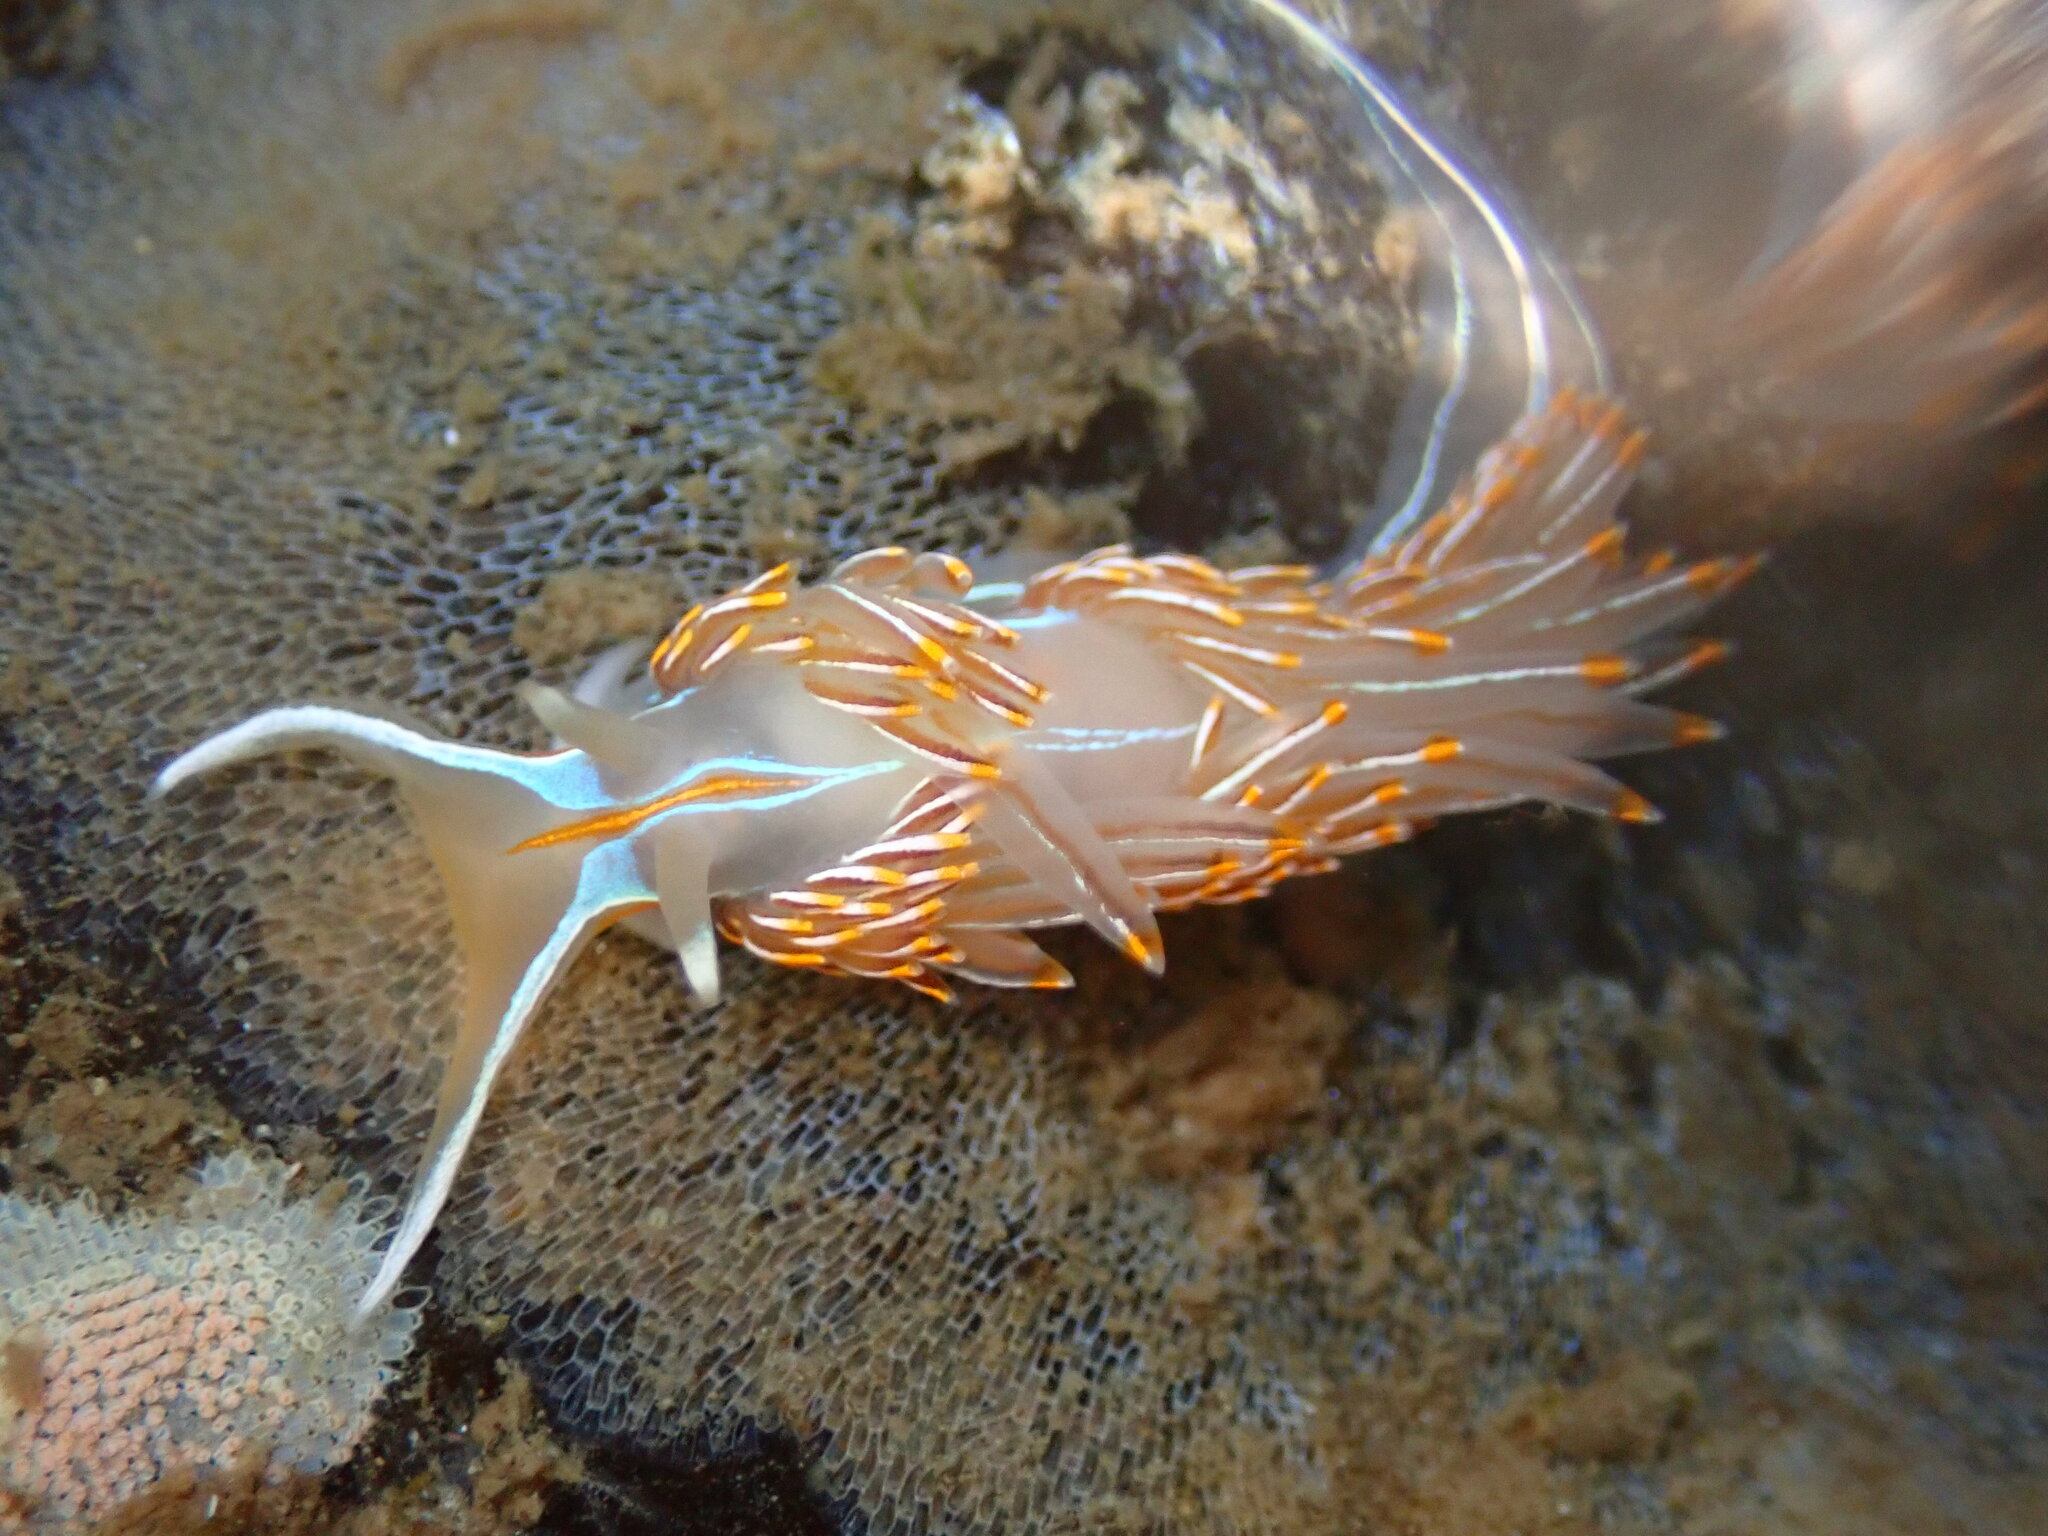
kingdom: Animalia
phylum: Mollusca
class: Gastropoda
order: Nudibranchia
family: Myrrhinidae
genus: Hermissenda
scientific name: Hermissenda crassicornis
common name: Hermissenda
